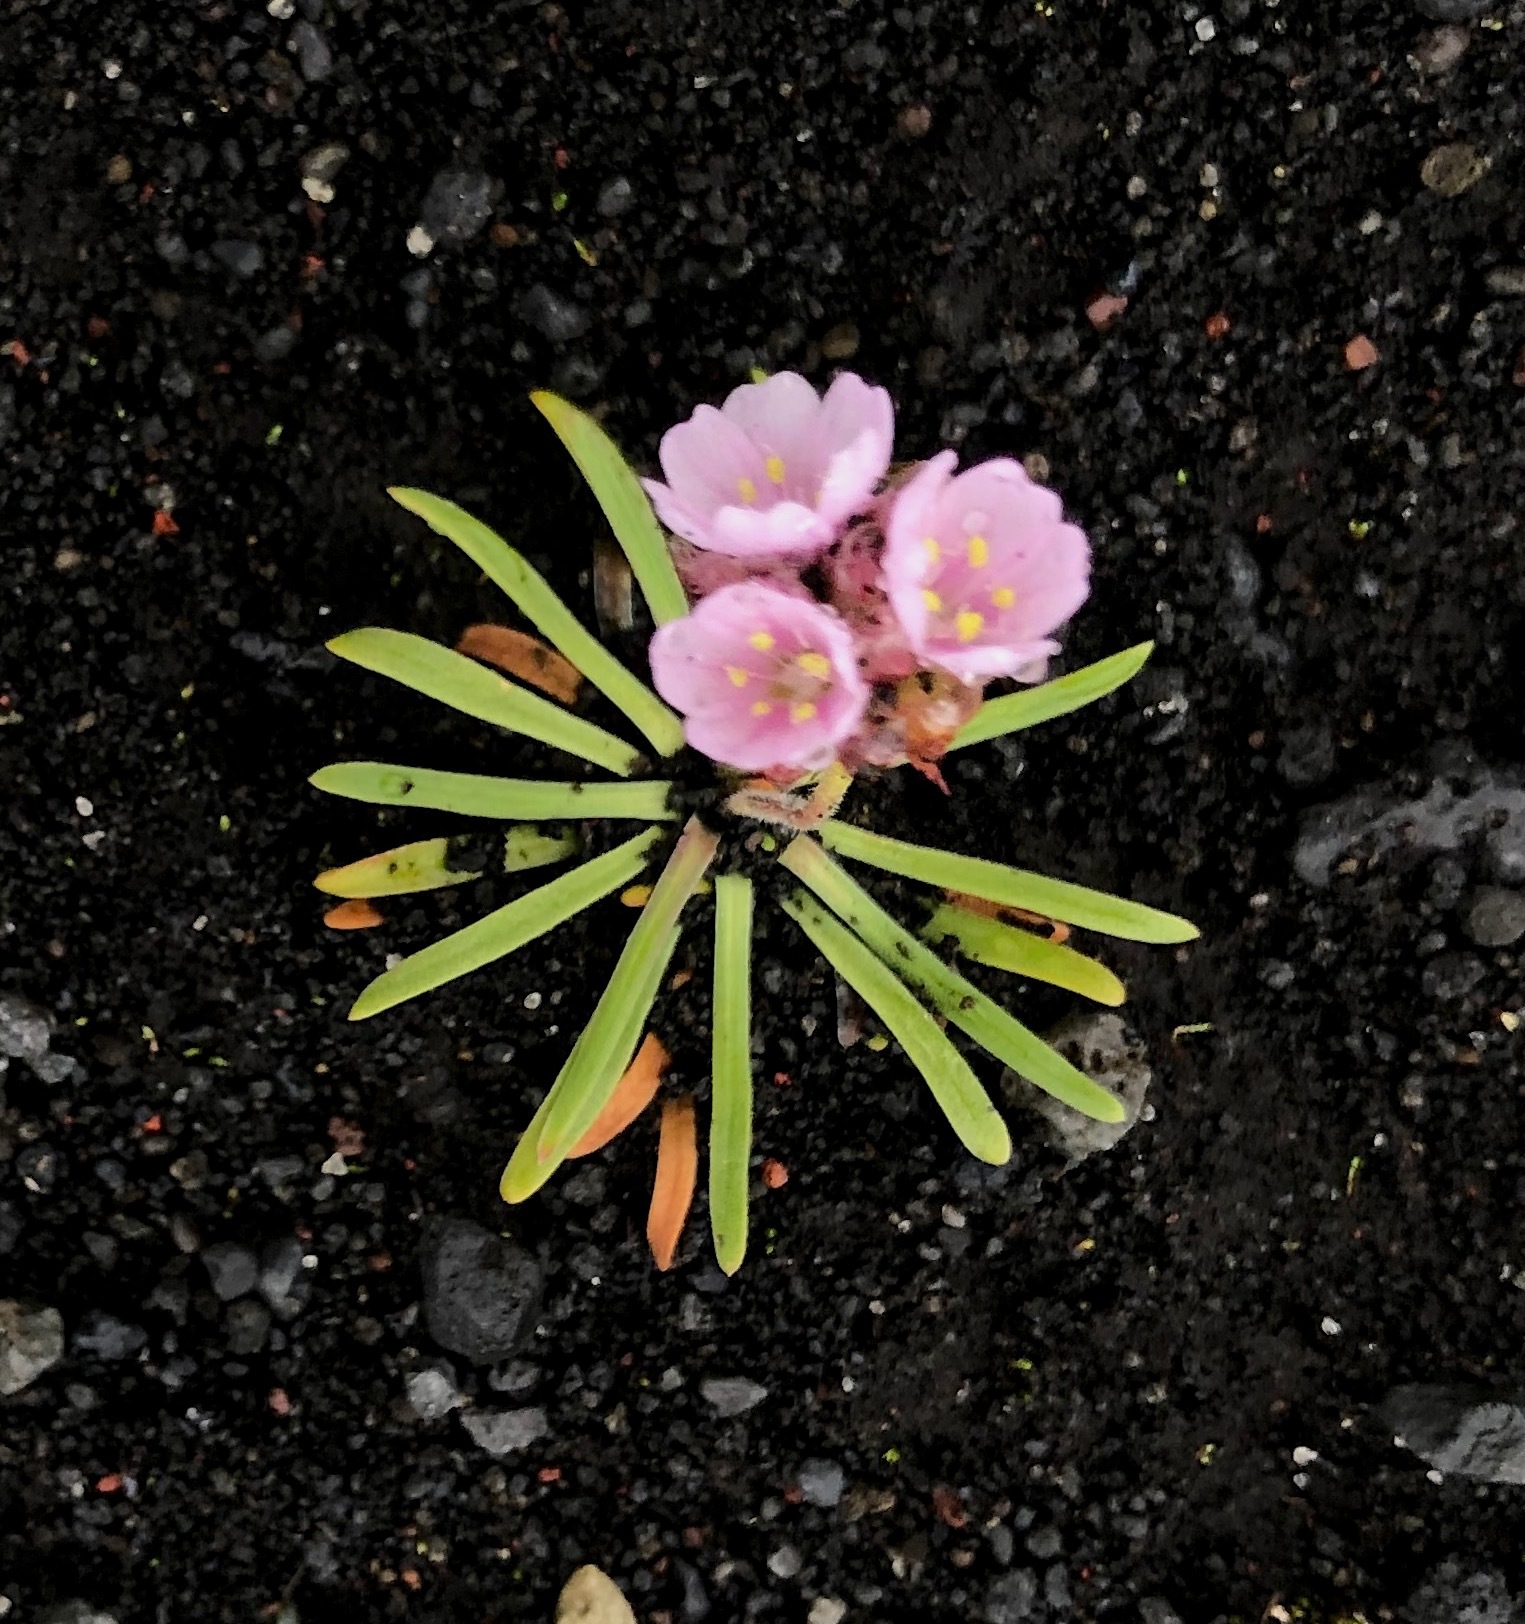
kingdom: Plantae
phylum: Tracheophyta
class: Magnoliopsida
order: Caryophyllales
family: Plumbaginaceae
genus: Armeria
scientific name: Armeria maritima
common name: Thrift
